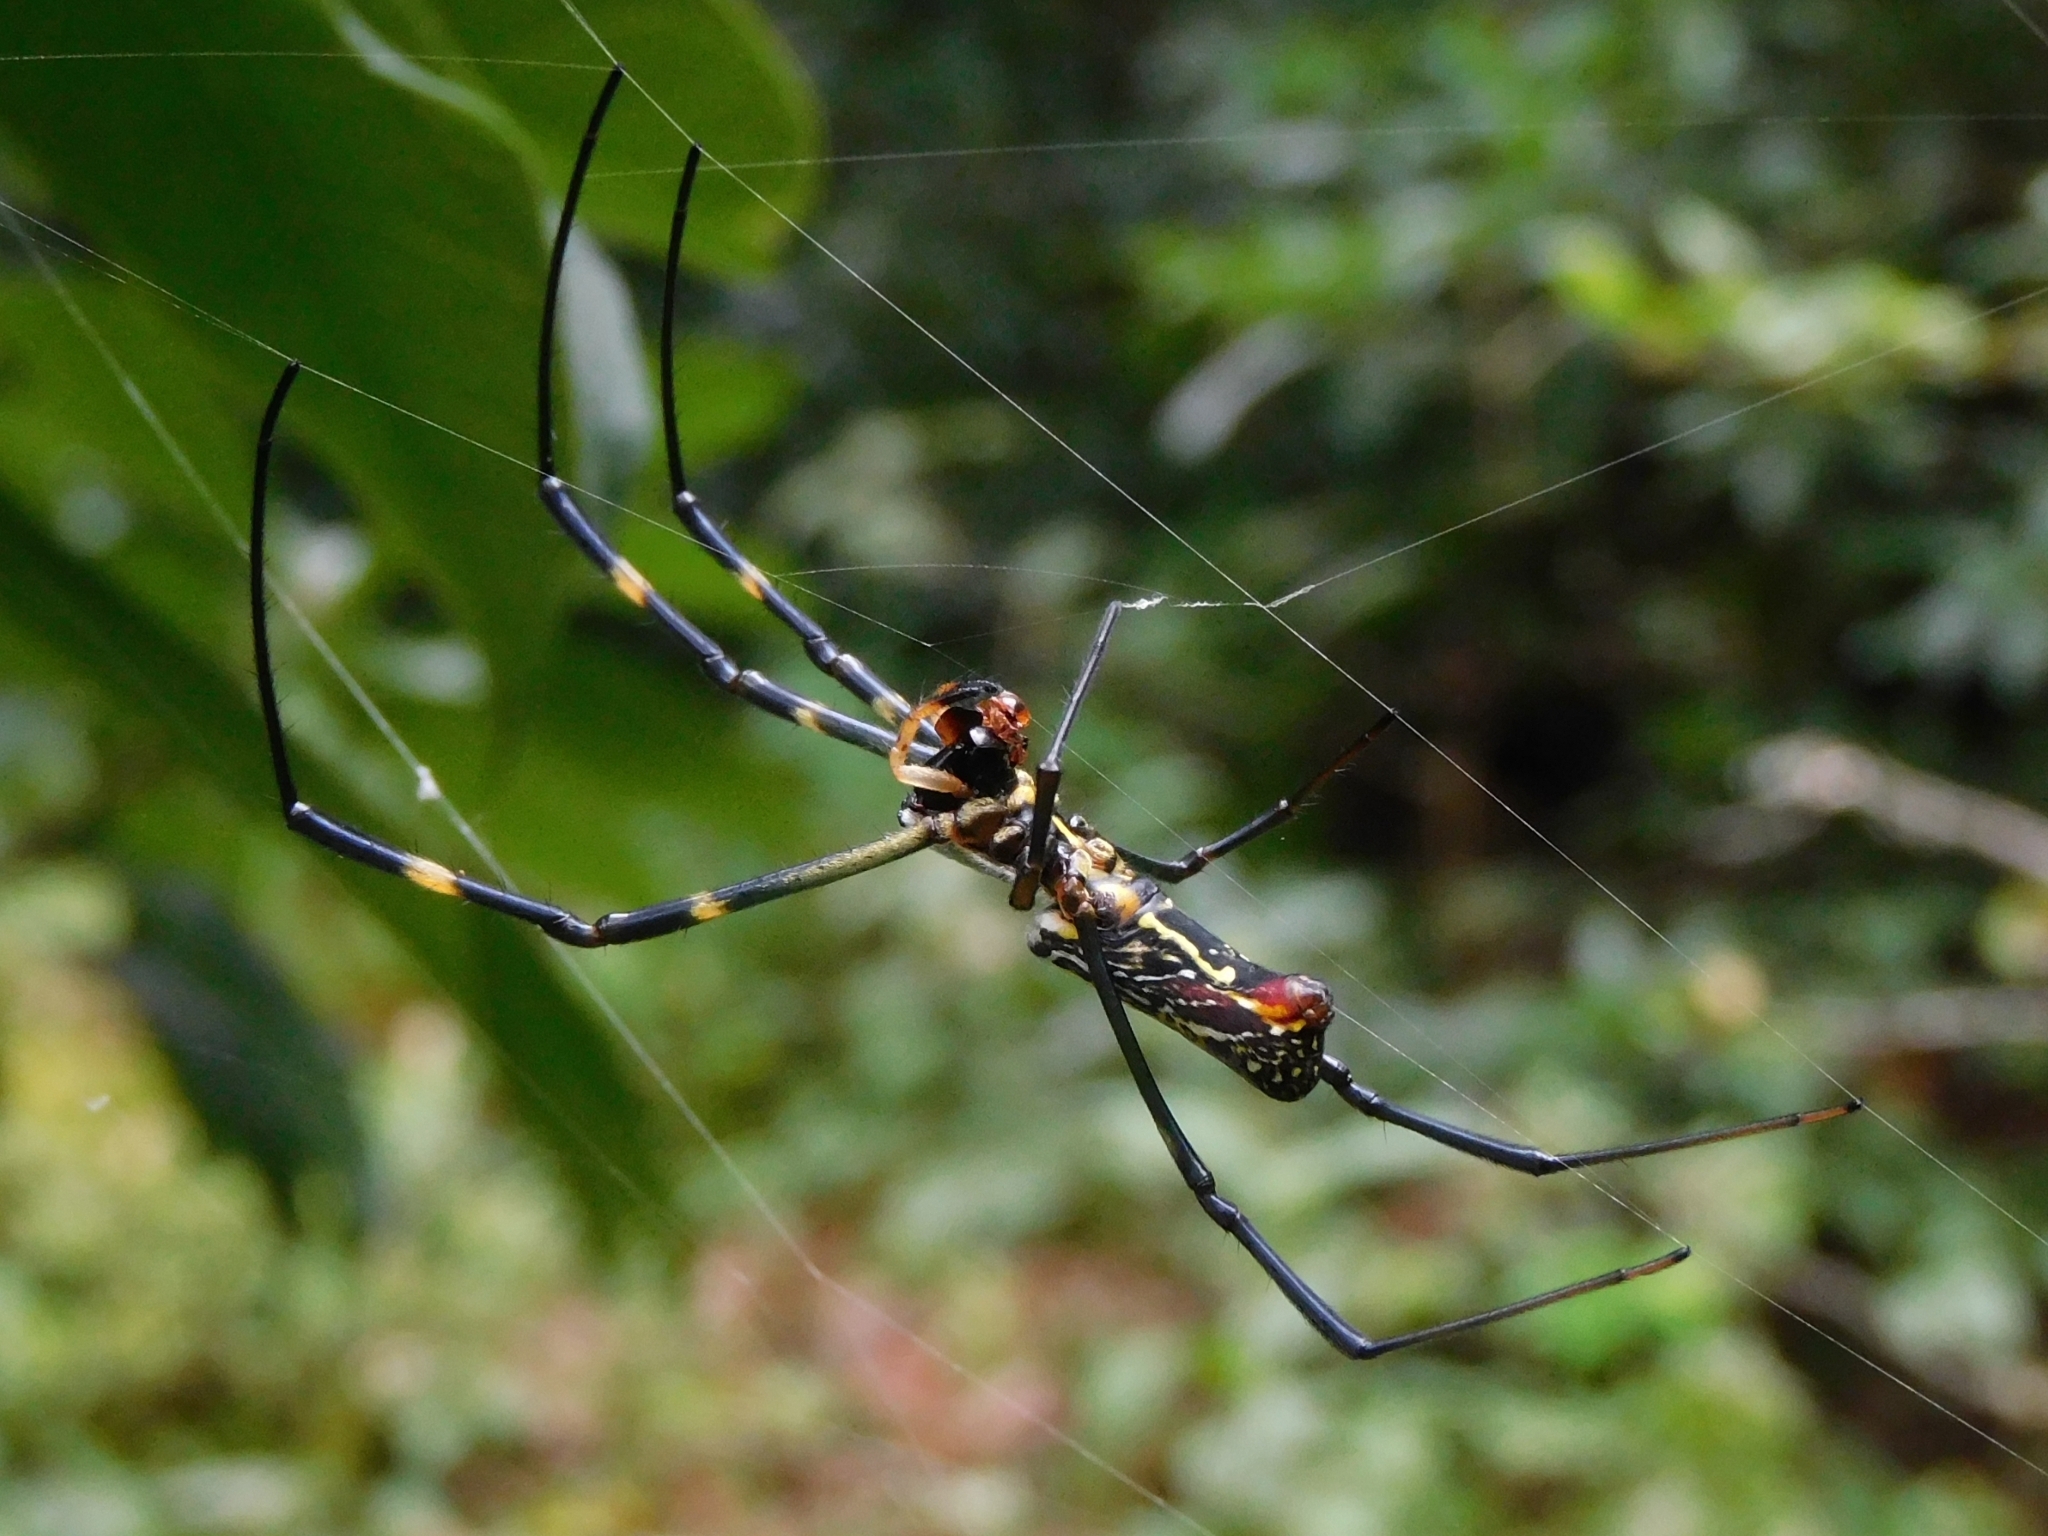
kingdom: Animalia
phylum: Arthropoda
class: Arachnida
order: Araneae
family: Araneidae
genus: Trichonephila
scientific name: Trichonephila clavata
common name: Jorō spider
